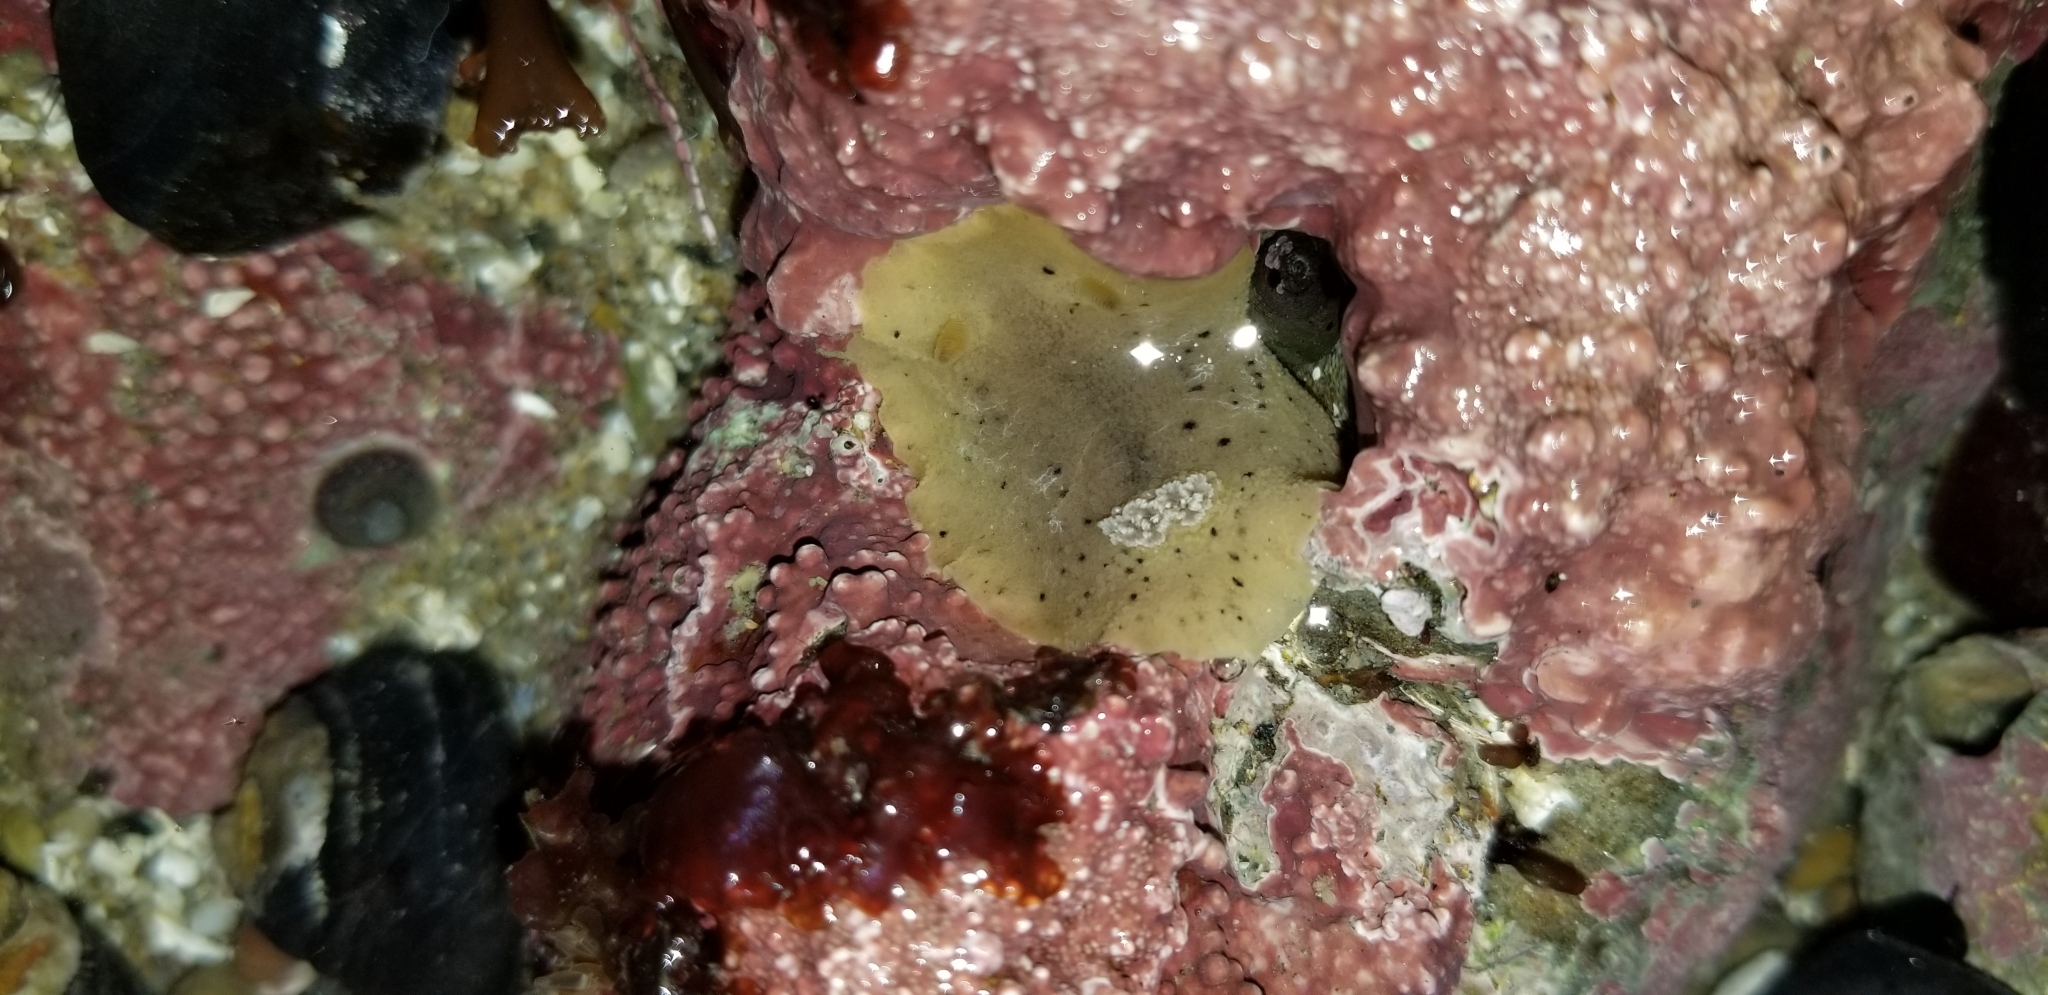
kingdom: Animalia
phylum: Mollusca
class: Gastropoda
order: Nudibranchia
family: Discodorididae
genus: Geitodoris
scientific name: Geitodoris heathi
